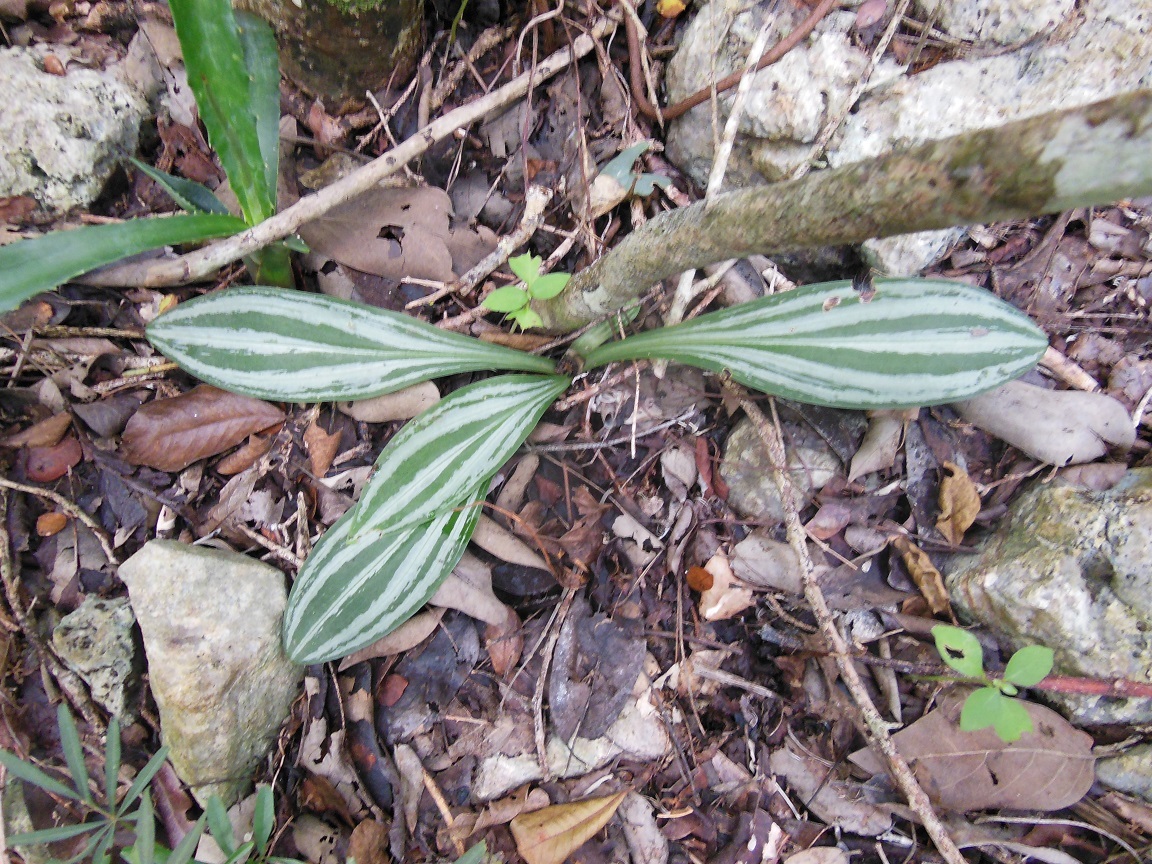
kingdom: Plantae
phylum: Tracheophyta
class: Liliopsida
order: Asparagales
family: Orchidaceae
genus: Sarcoglottis
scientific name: Sarcoglottis sceptrodes
